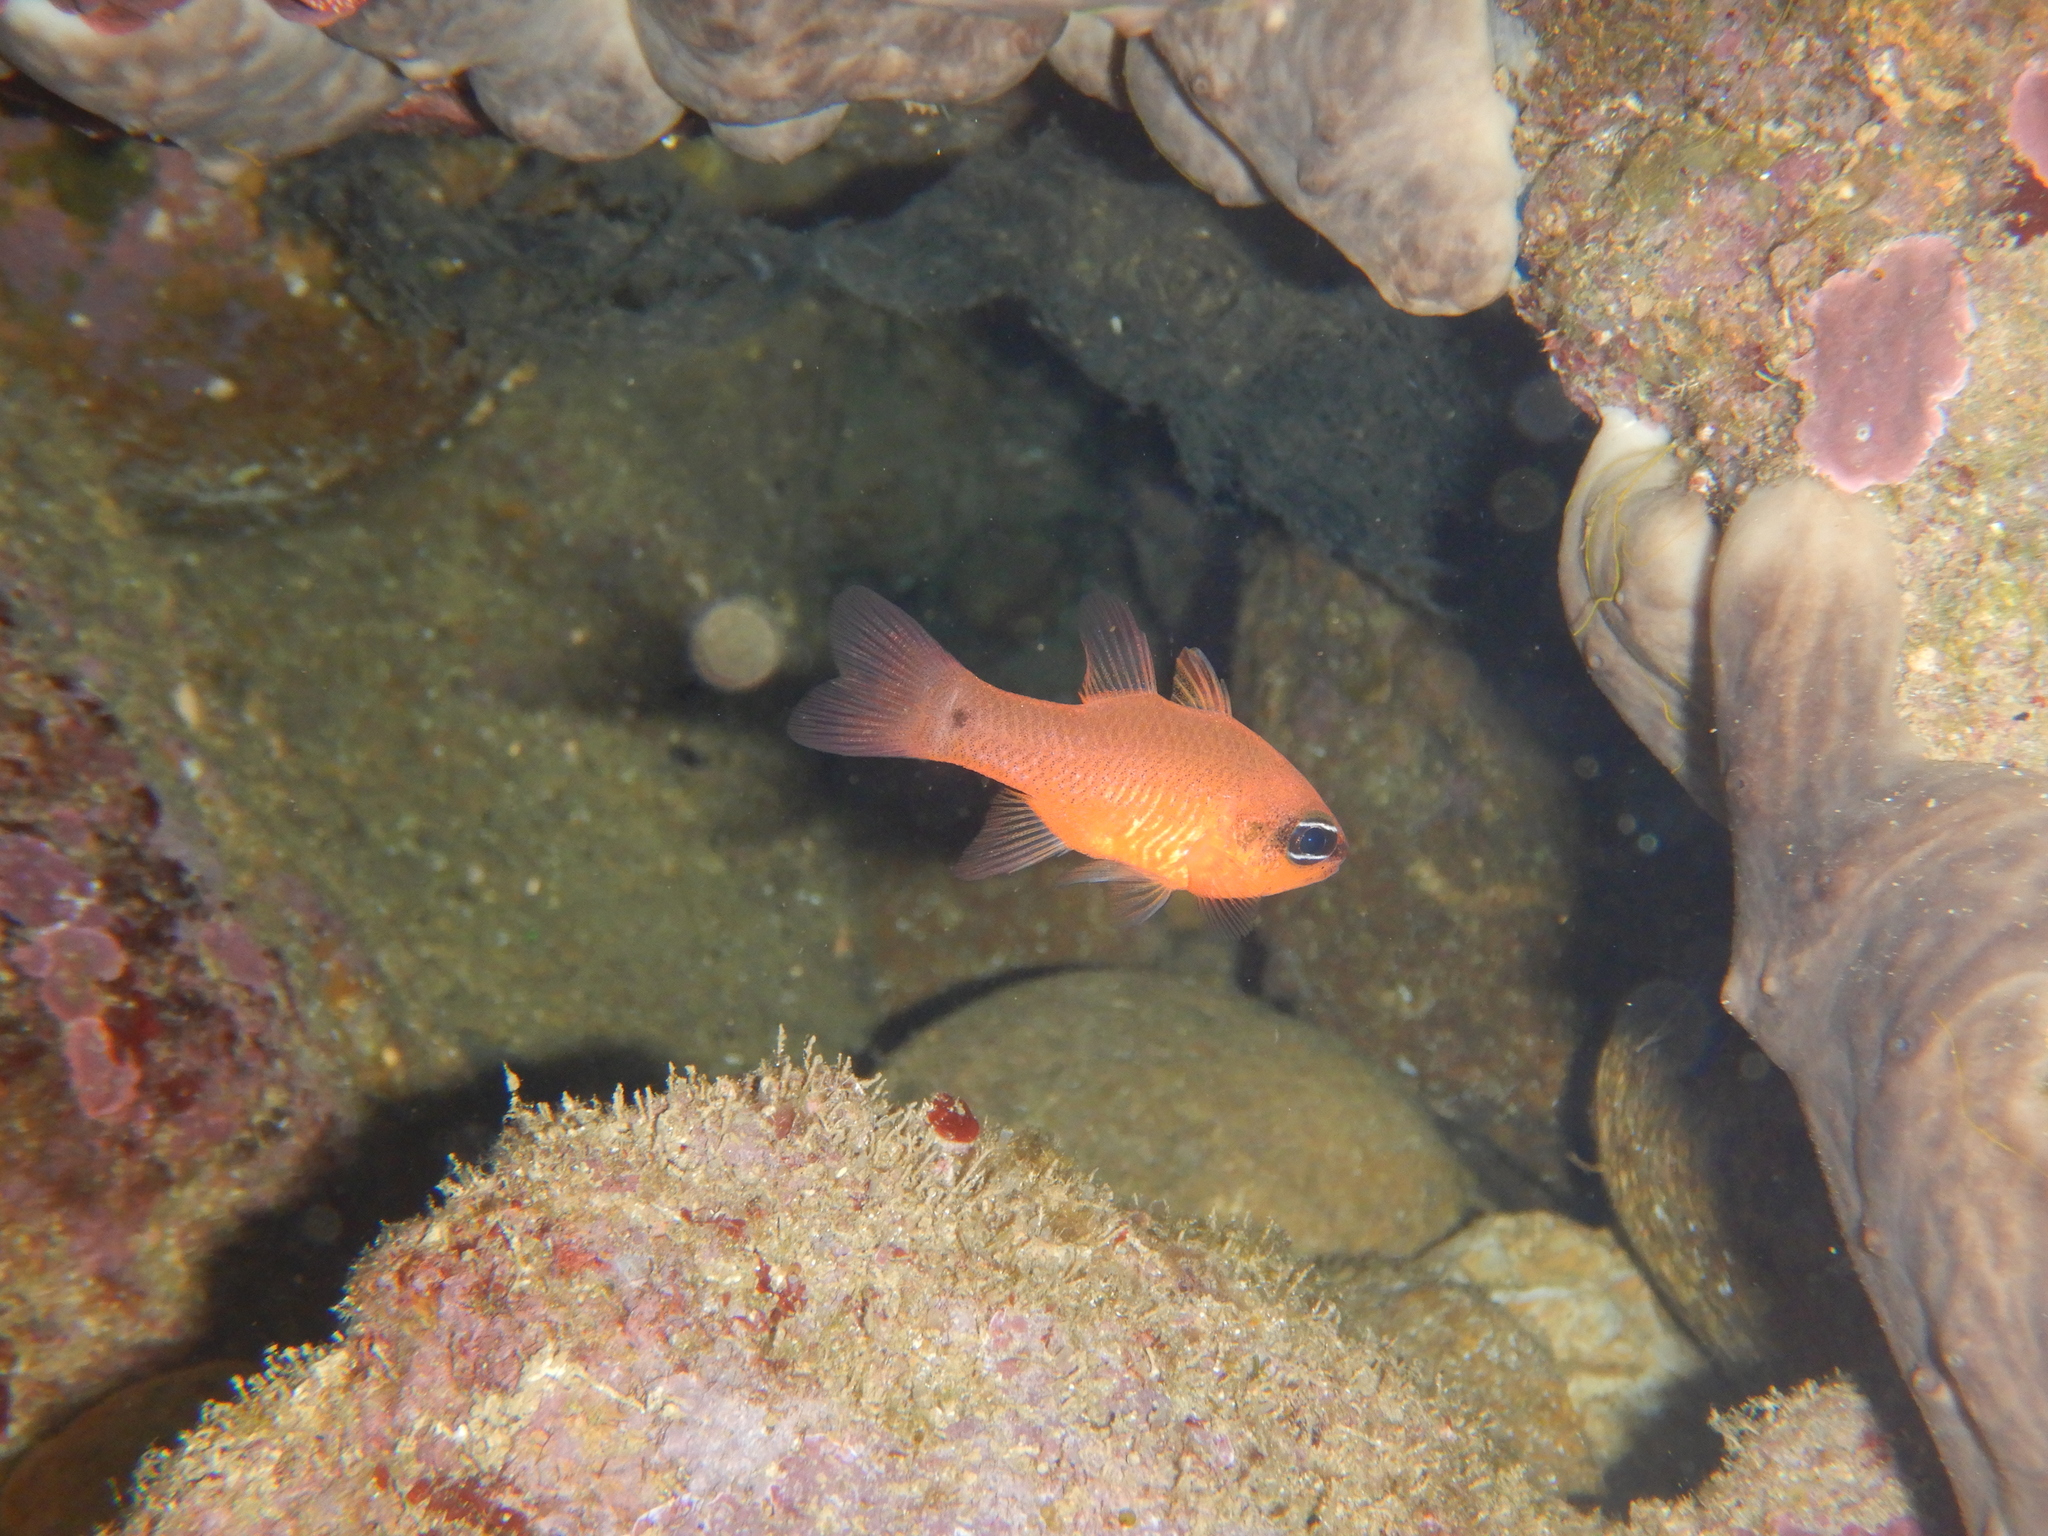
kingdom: Animalia
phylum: Chordata
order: Perciformes
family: Apogonidae
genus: Apogon
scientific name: Apogon imberbis
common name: Cardinal fish
